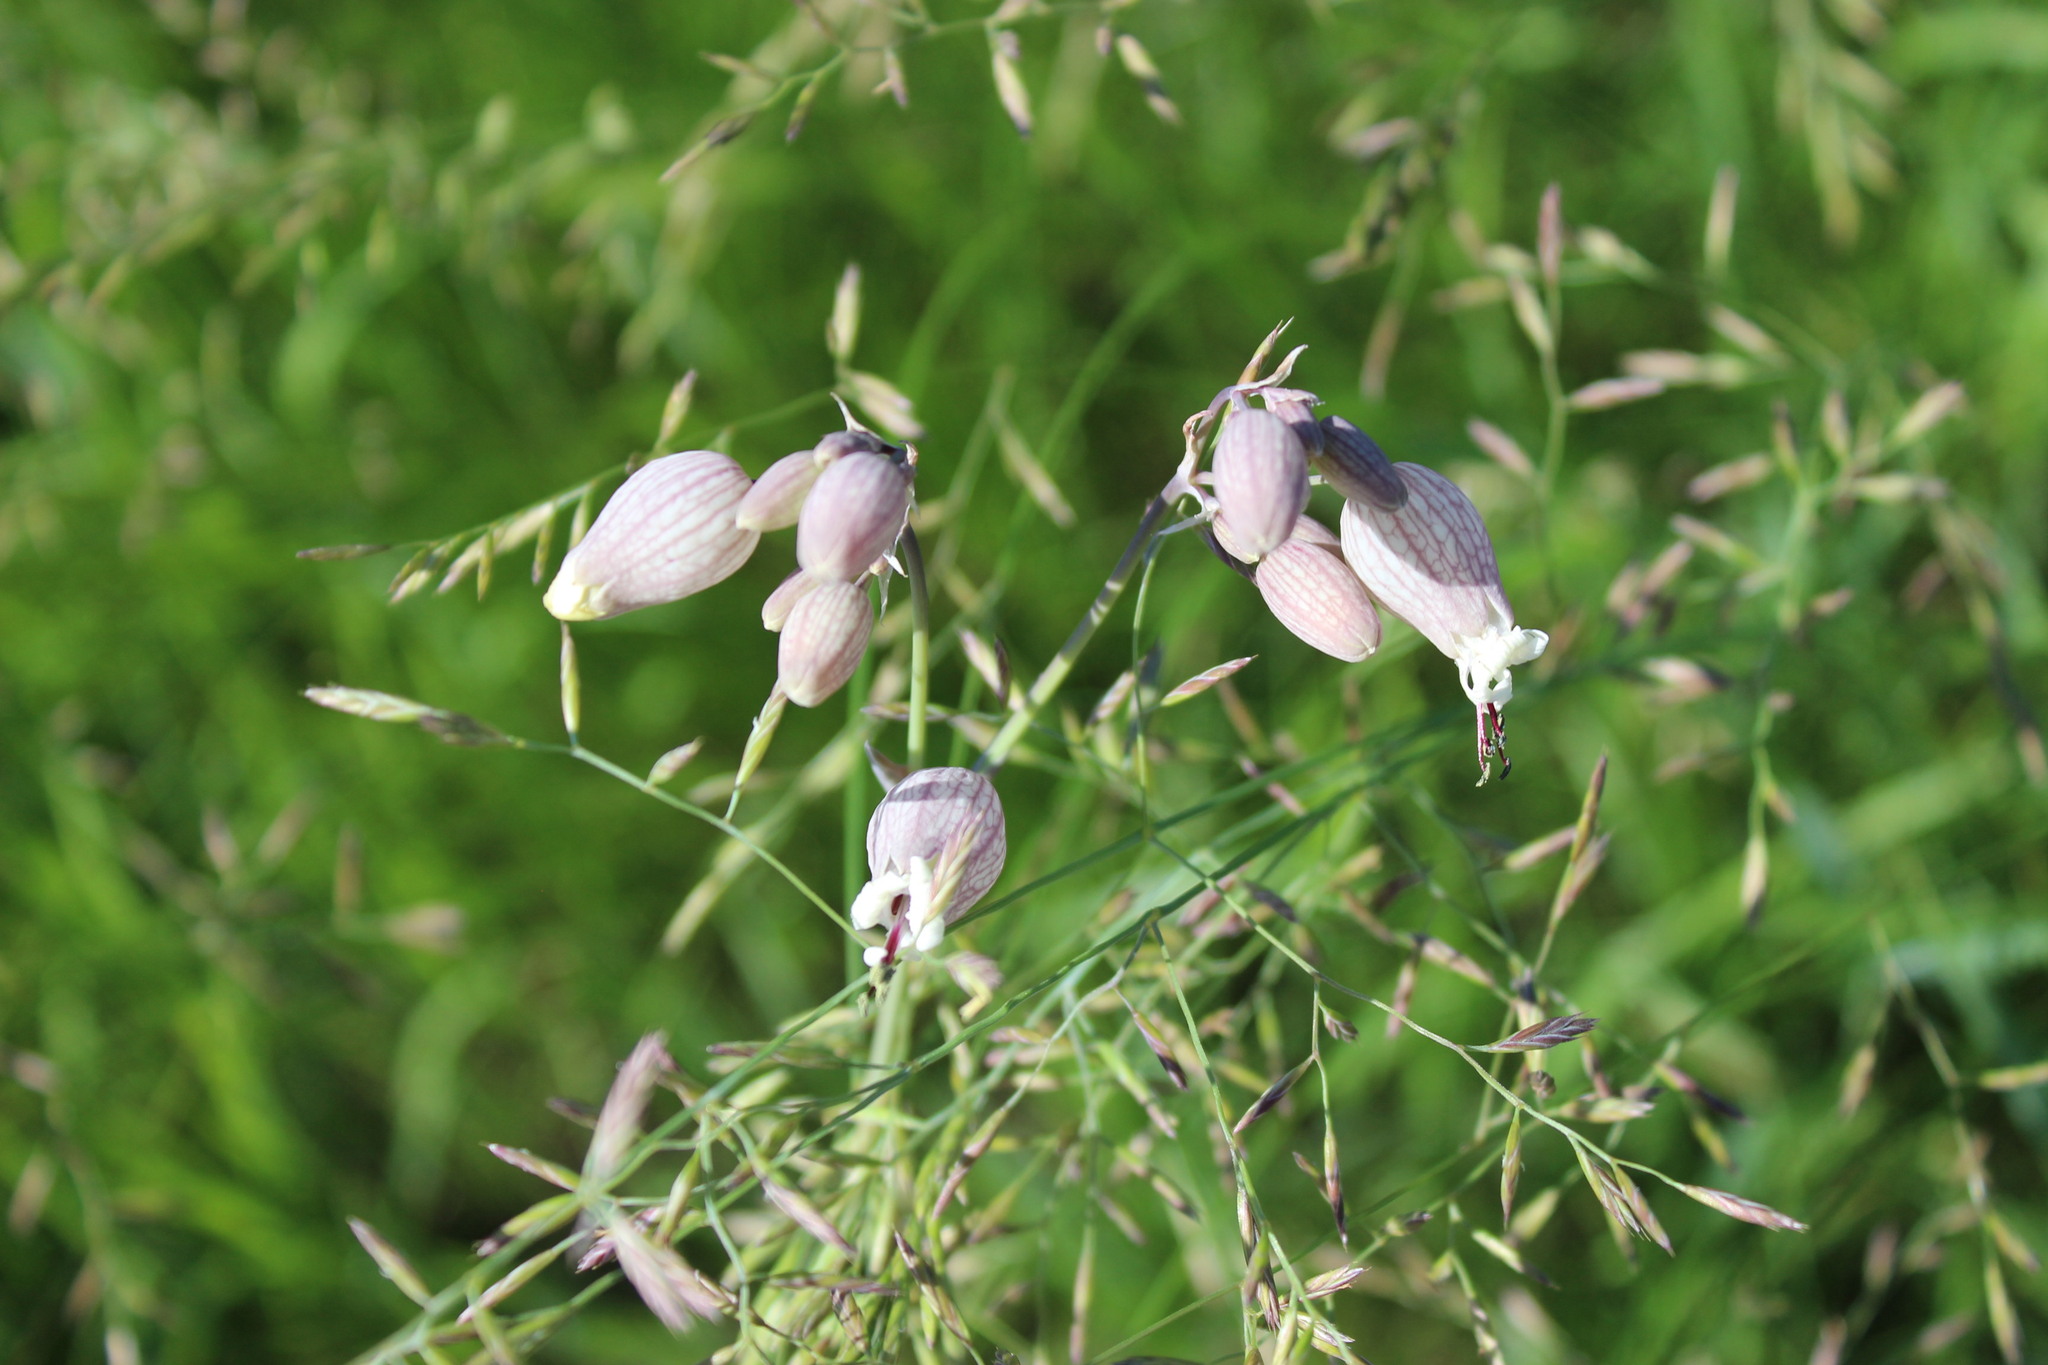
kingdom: Plantae
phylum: Tracheophyta
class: Magnoliopsida
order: Caryophyllales
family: Caryophyllaceae
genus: Silene
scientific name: Silene vulgaris
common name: Bladder campion
